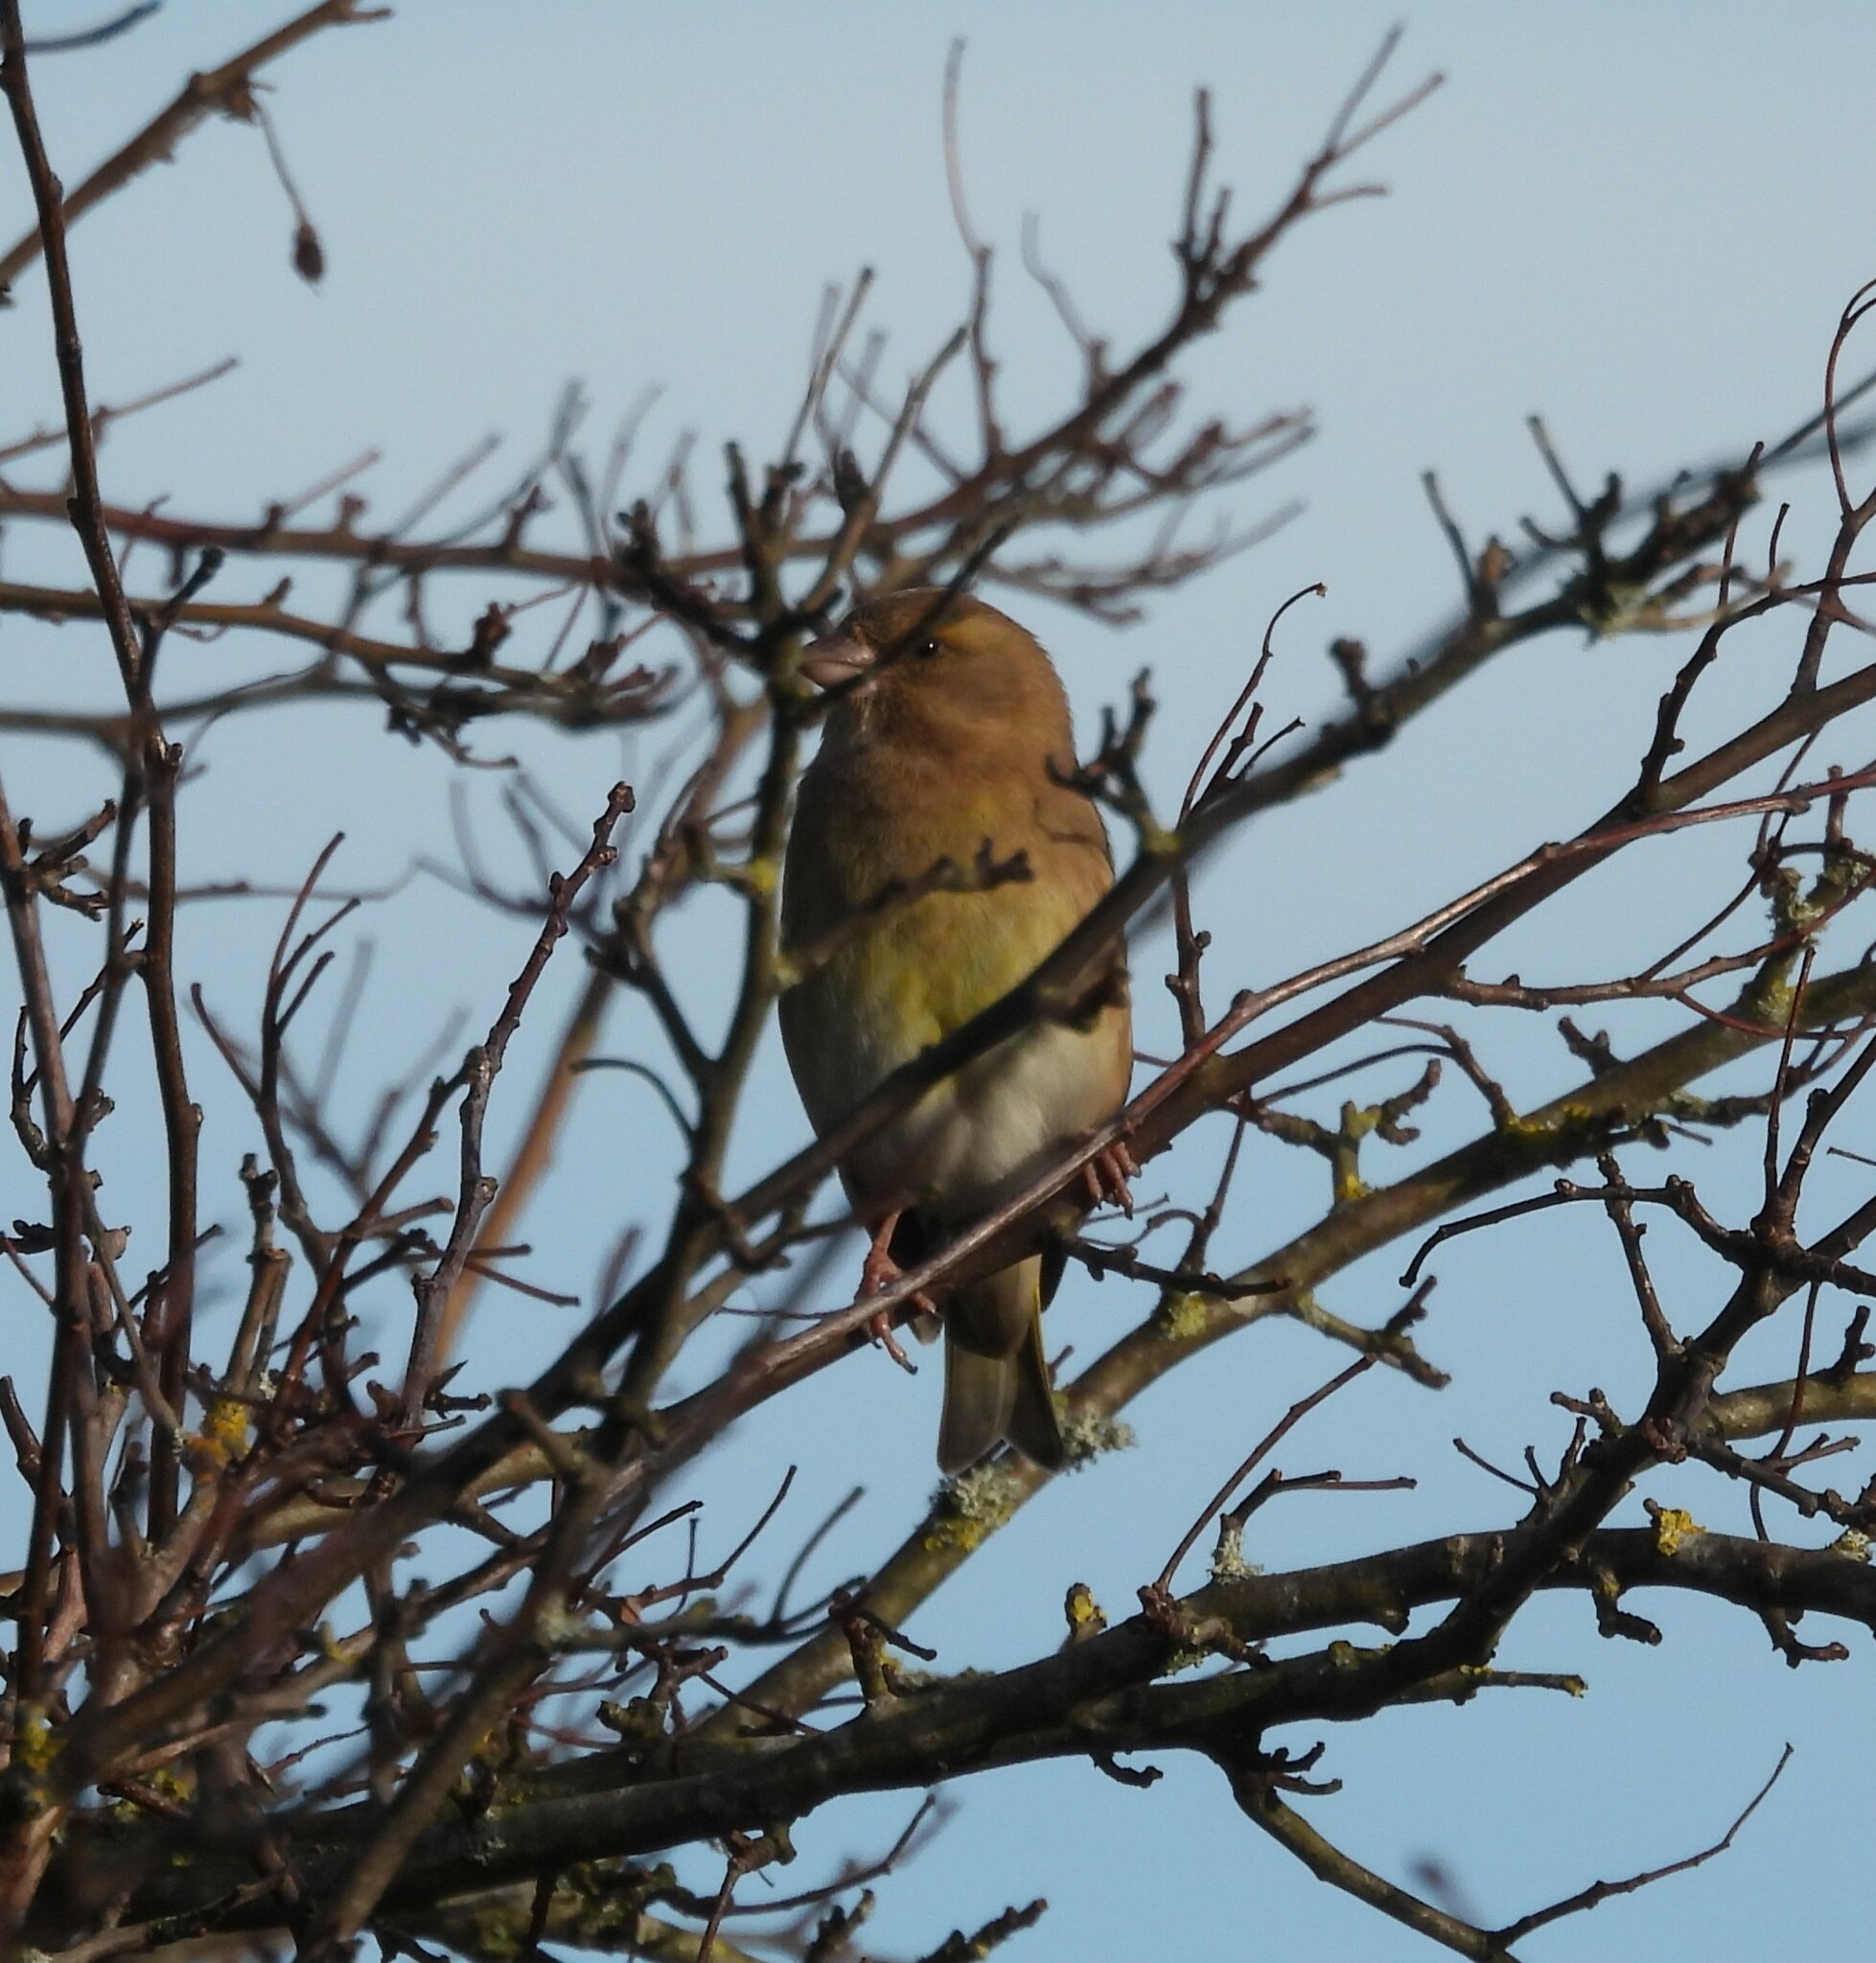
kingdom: Plantae
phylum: Tracheophyta
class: Liliopsida
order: Poales
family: Poaceae
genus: Chloris
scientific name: Chloris chloris
